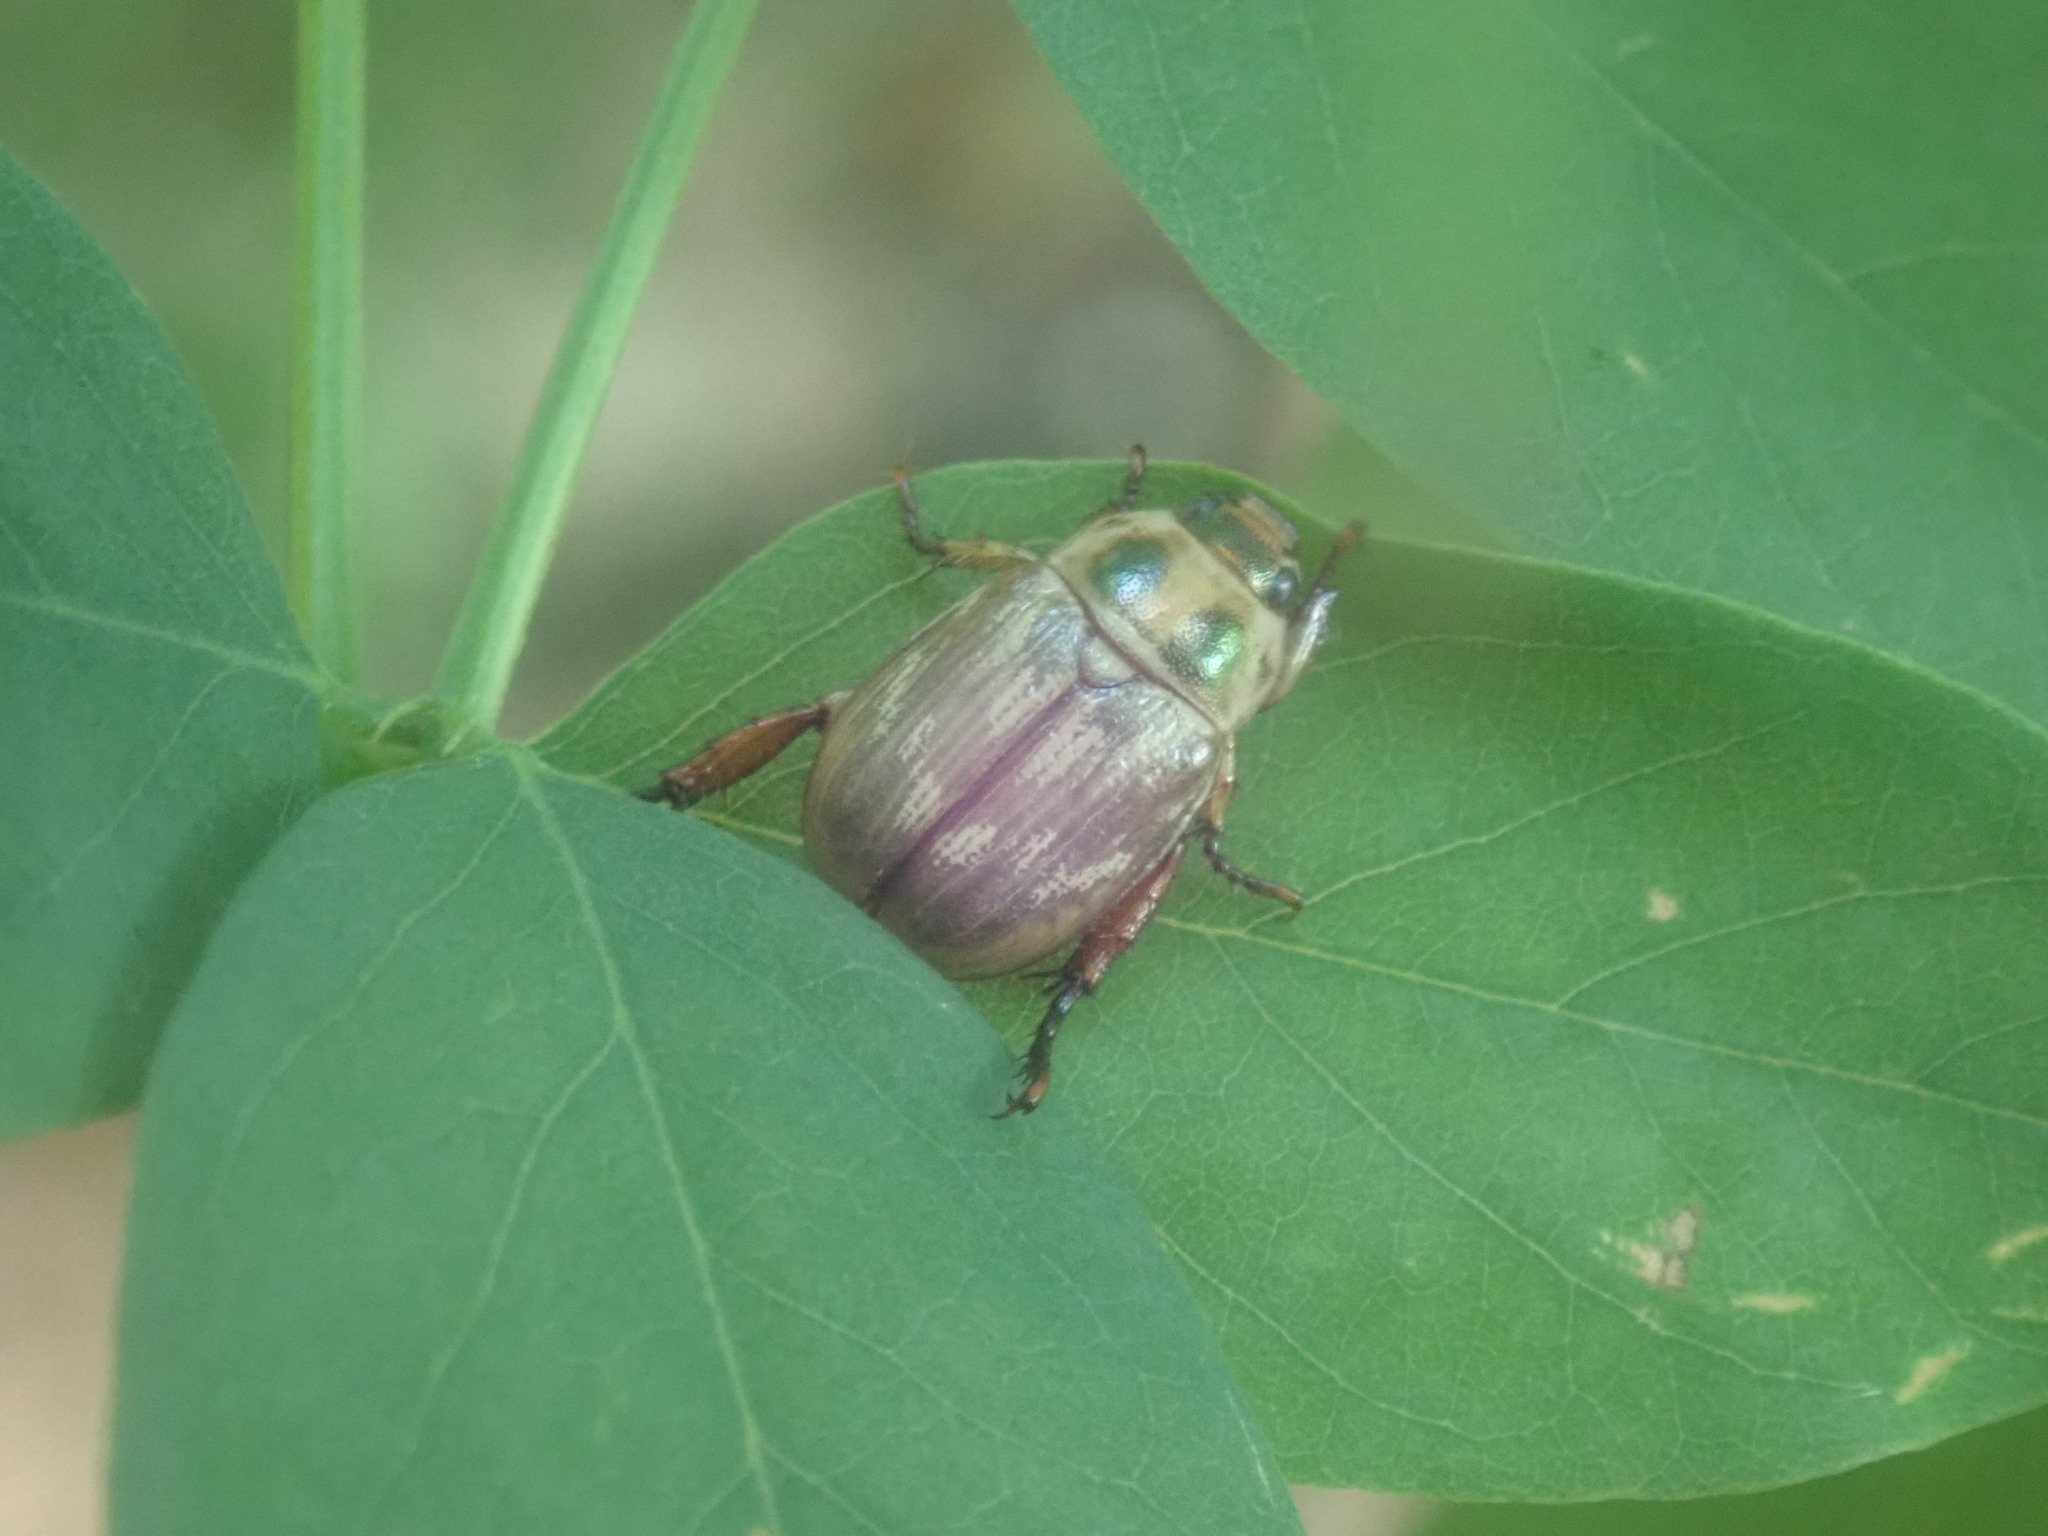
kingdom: Animalia
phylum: Arthropoda
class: Insecta
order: Coleoptera
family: Scarabaeidae
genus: Exomala
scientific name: Exomala orientalis
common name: Oriental beetle
